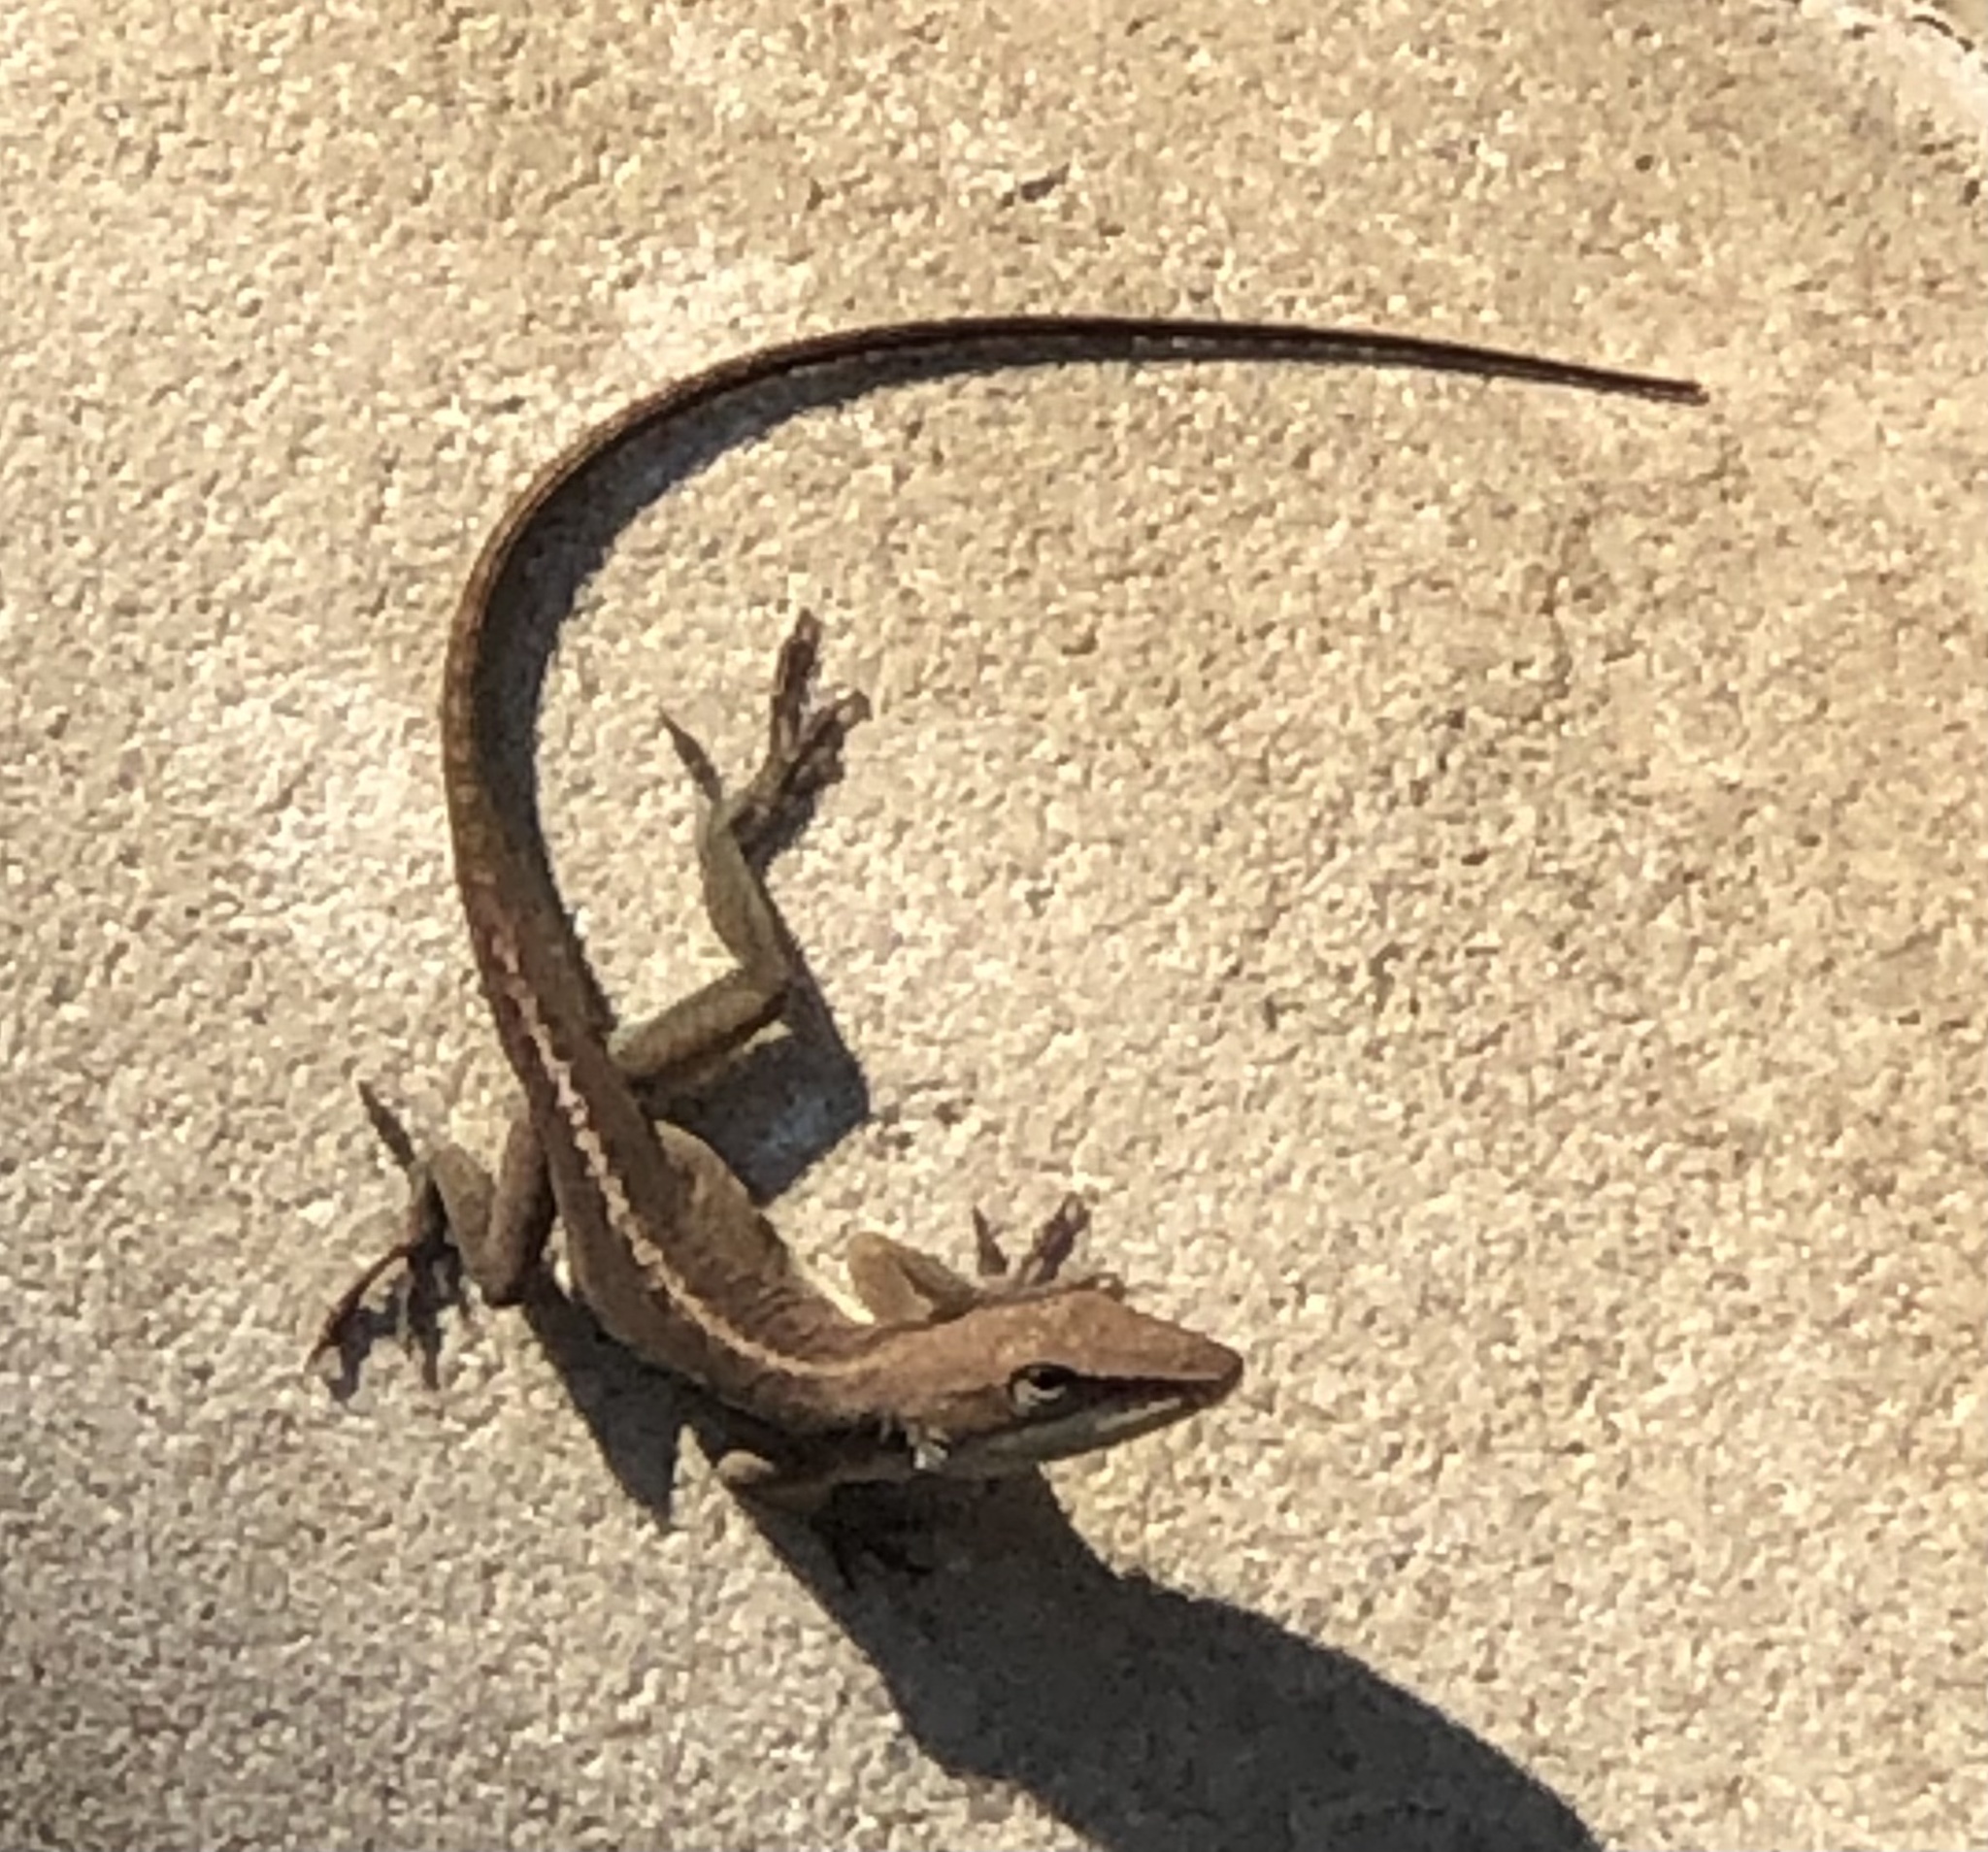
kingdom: Animalia
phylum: Chordata
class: Squamata
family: Dactyloidae
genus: Anolis
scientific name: Anolis carolinensis
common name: Green anole
